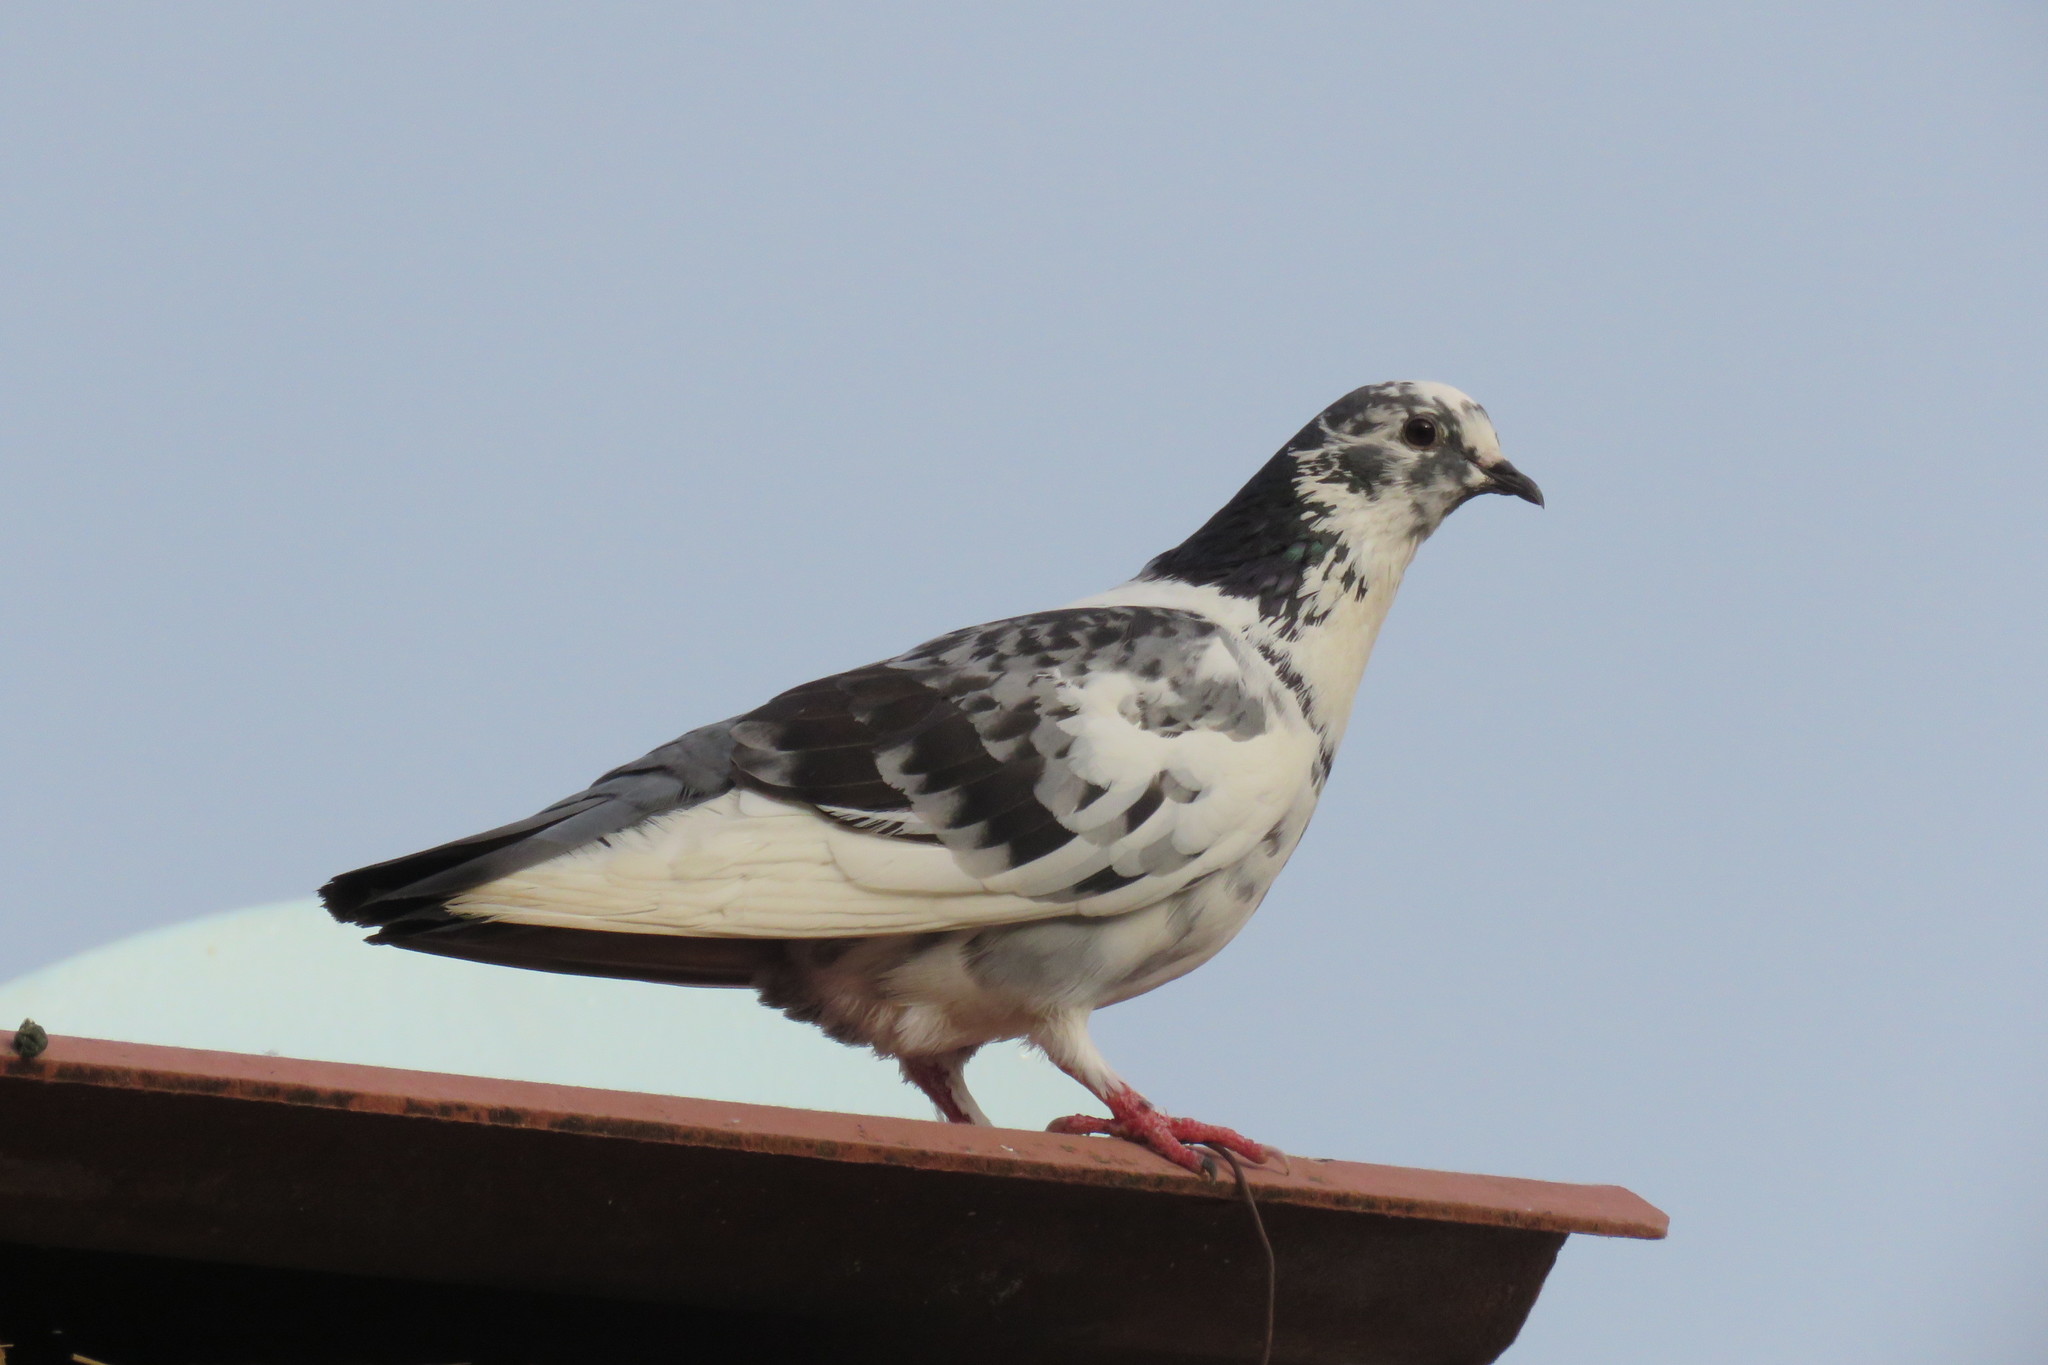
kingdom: Animalia
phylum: Chordata
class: Aves
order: Columbiformes
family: Columbidae
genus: Columba
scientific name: Columba livia
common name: Rock pigeon
